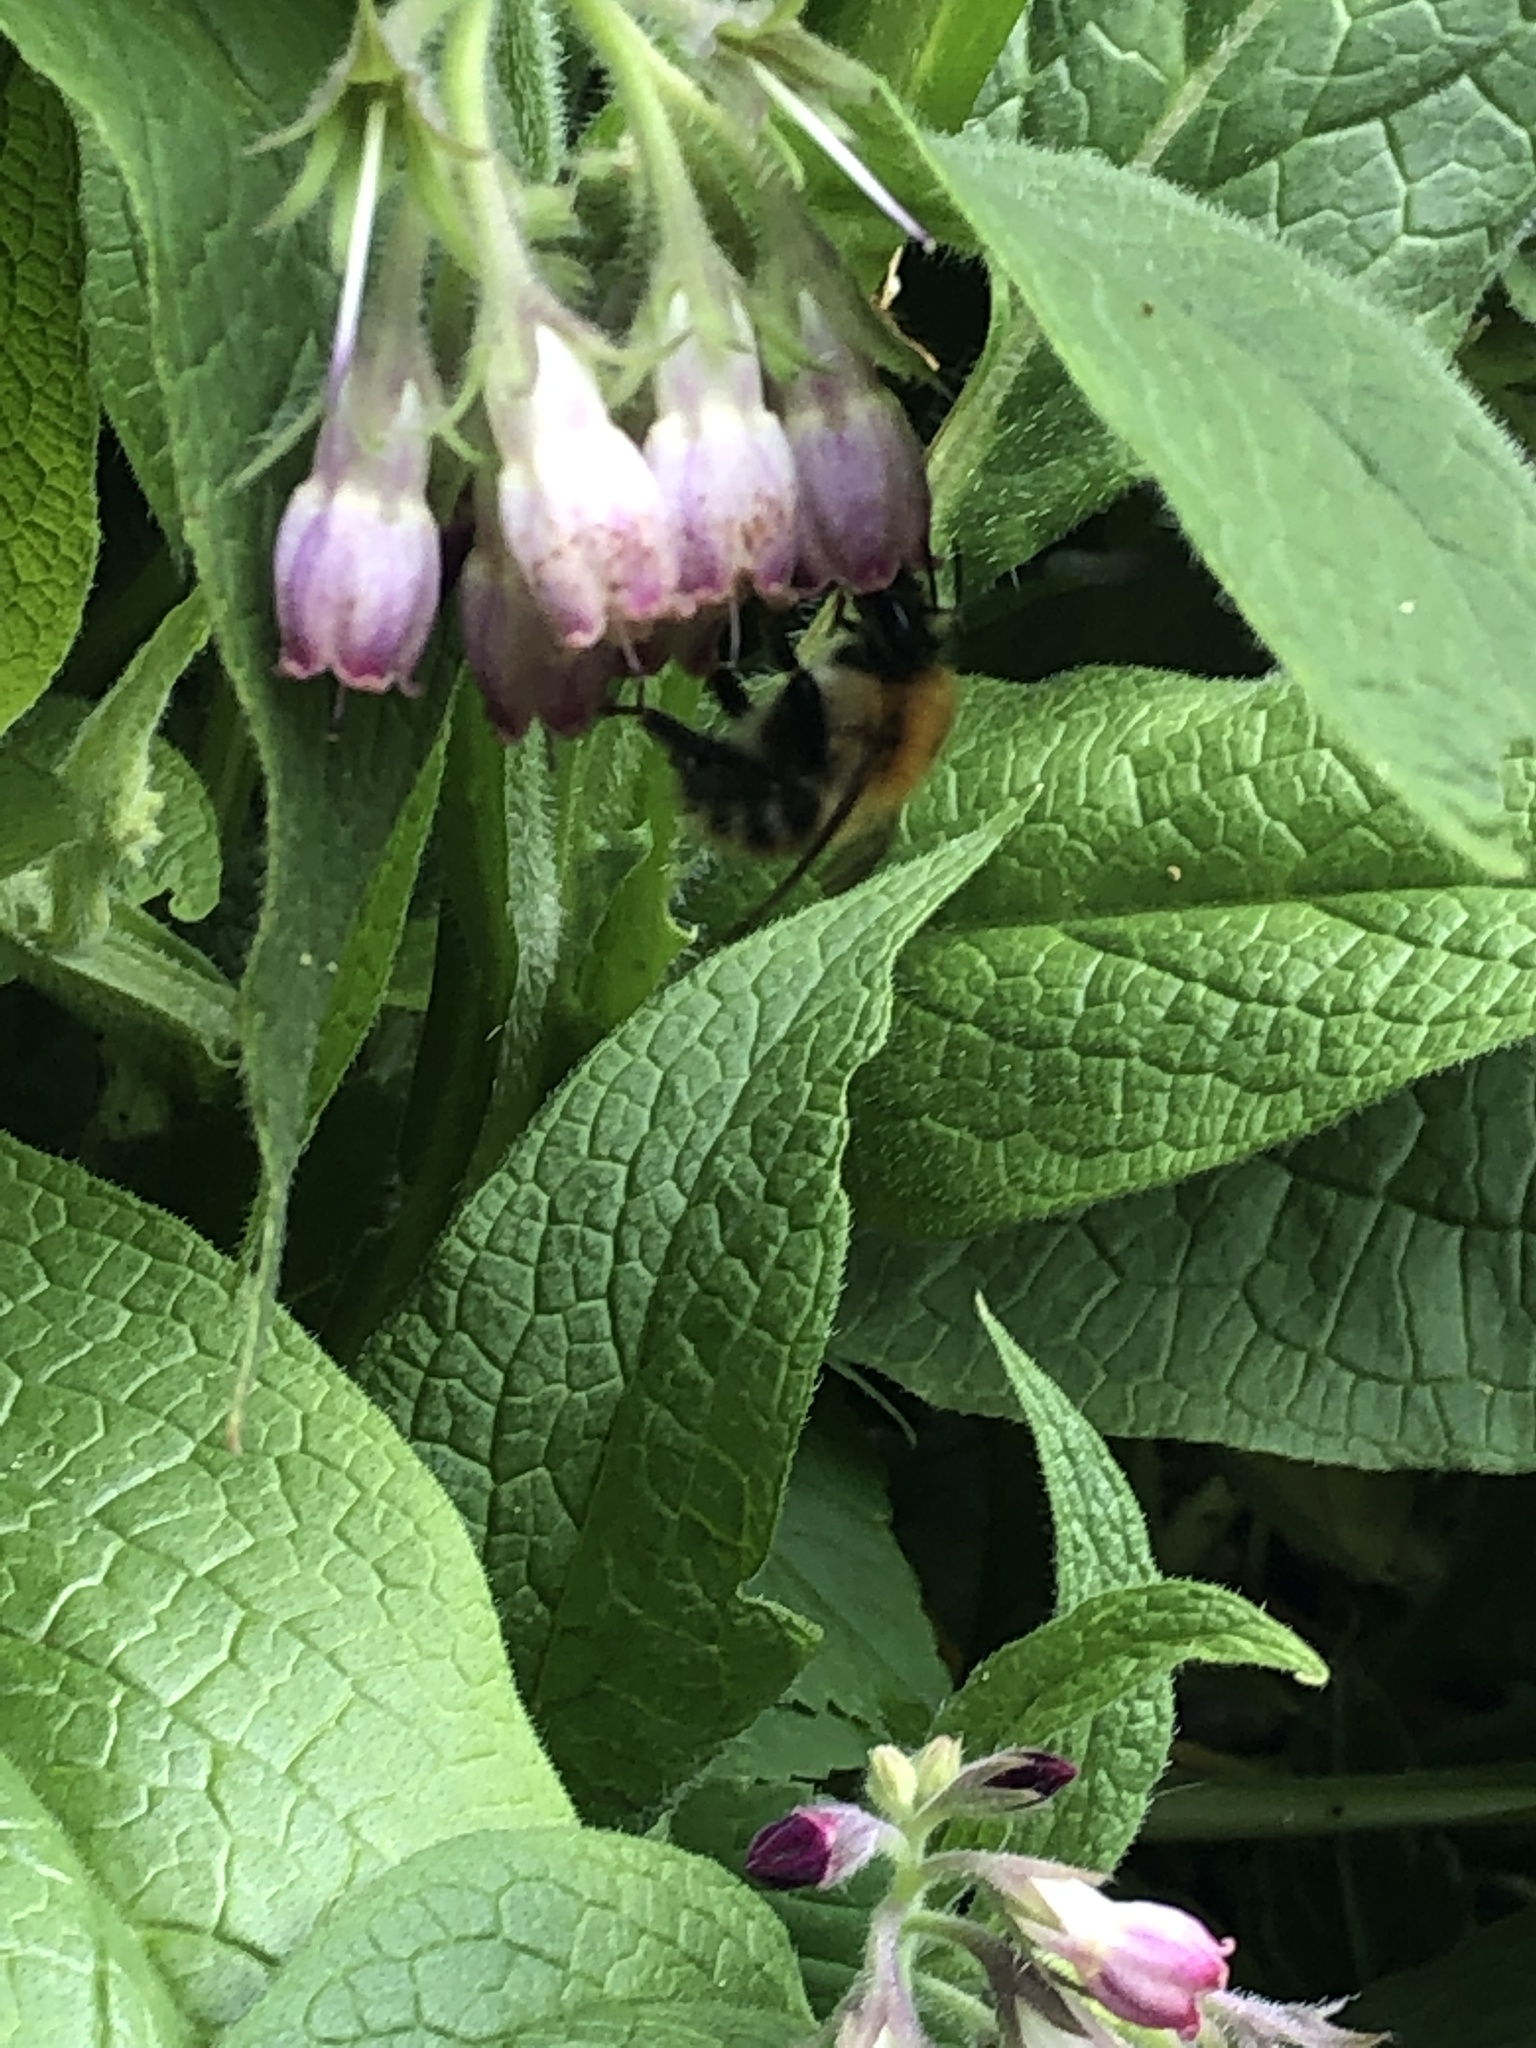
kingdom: Animalia
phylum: Arthropoda
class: Insecta
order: Hymenoptera
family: Apidae
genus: Bombus
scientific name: Bombus pascuorum
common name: Common carder bee
